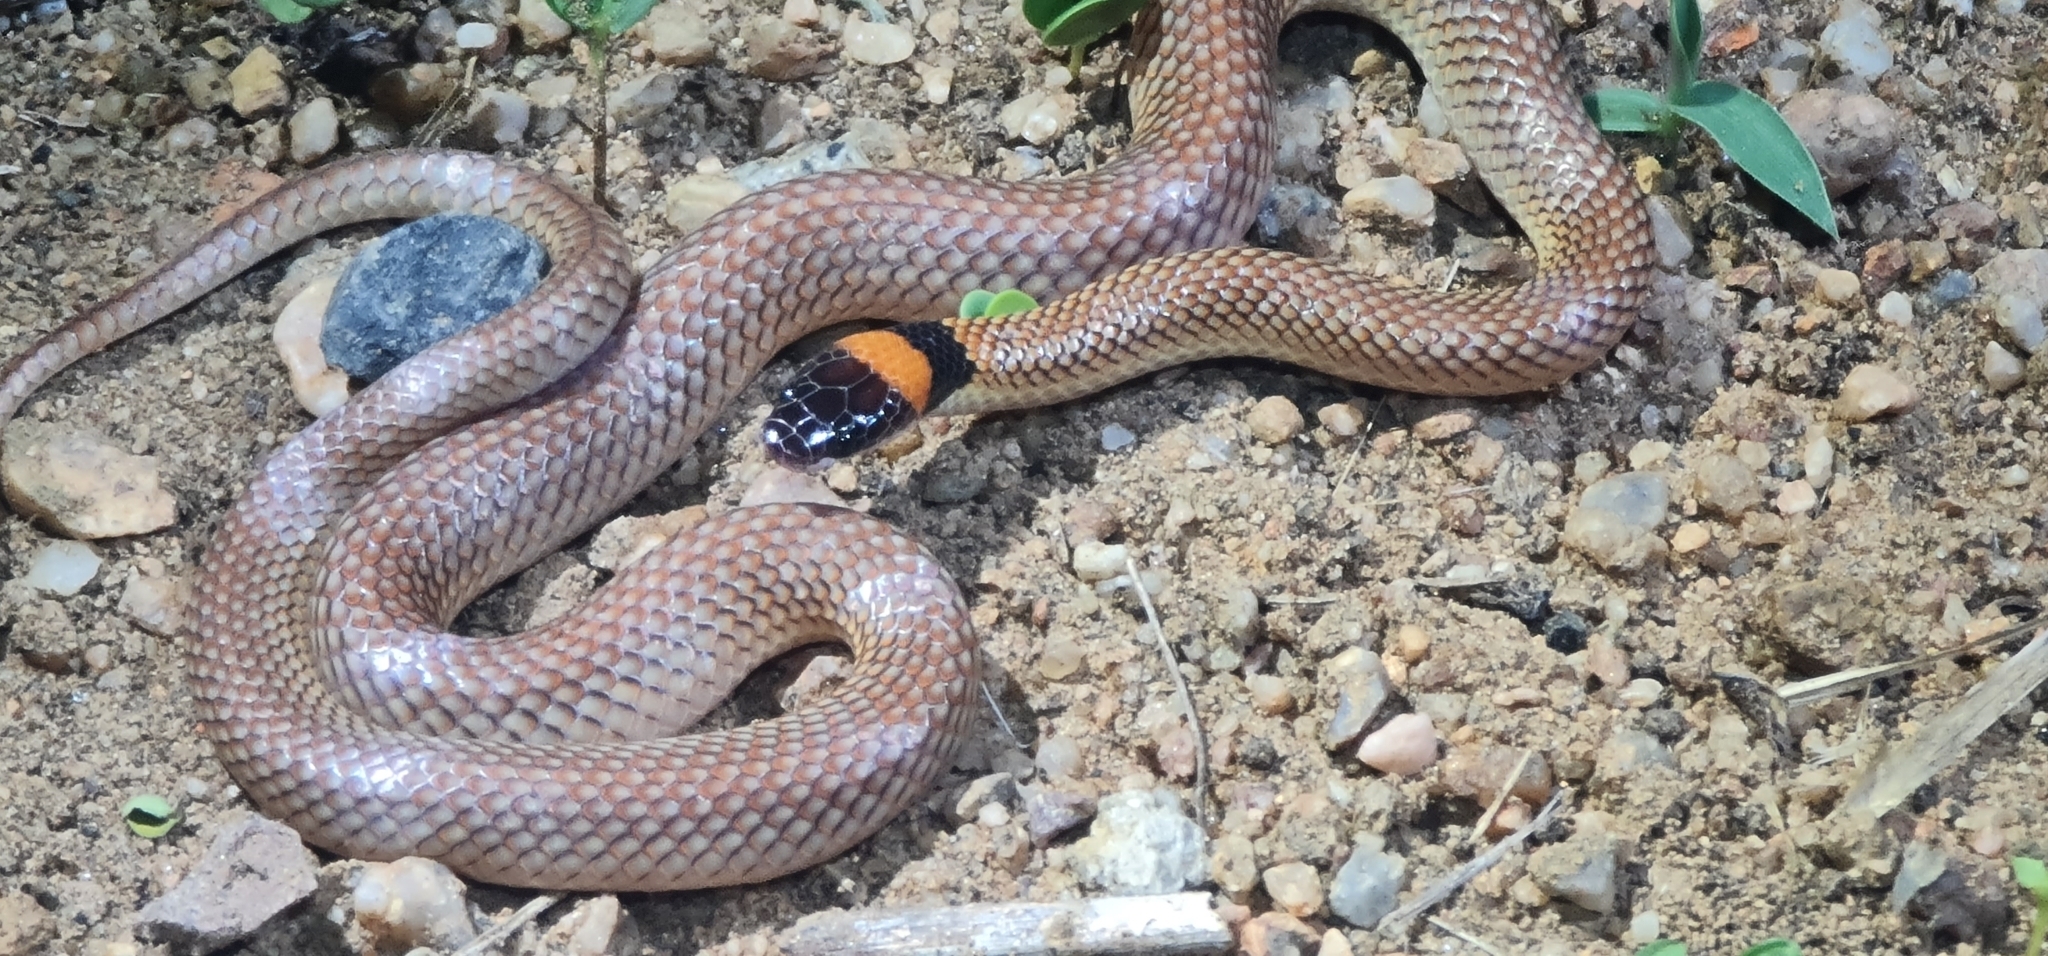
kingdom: Animalia
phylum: Chordata
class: Squamata
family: Elapidae
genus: Furina
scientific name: Furina diadema
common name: Red-naped snake
